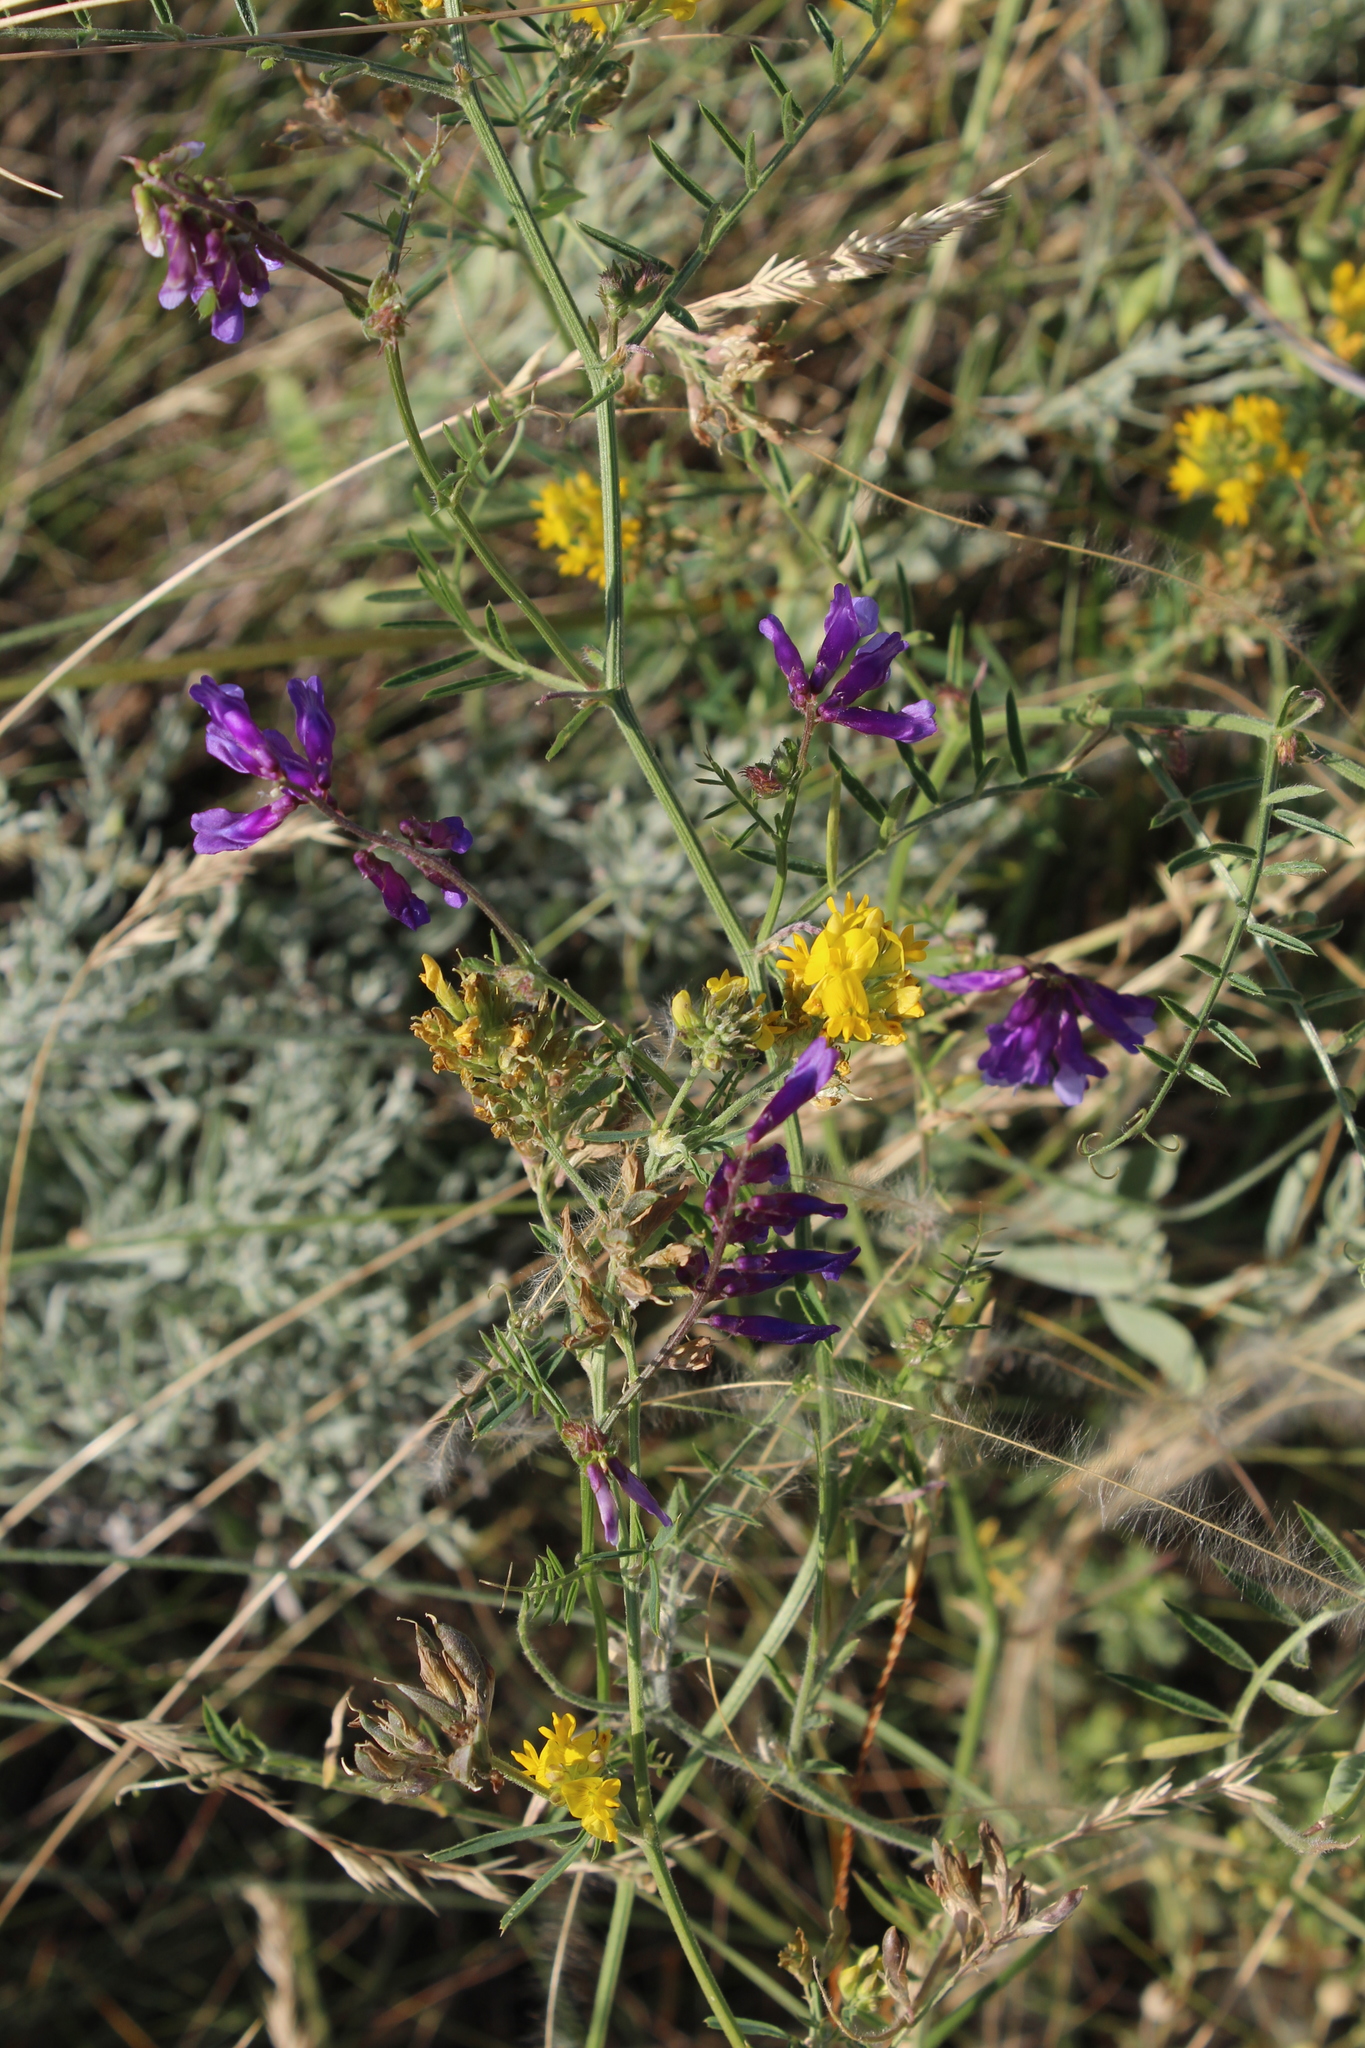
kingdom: Plantae
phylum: Tracheophyta
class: Magnoliopsida
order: Fabales
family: Fabaceae
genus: Vicia
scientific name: Vicia villosa
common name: Fodder vetch
